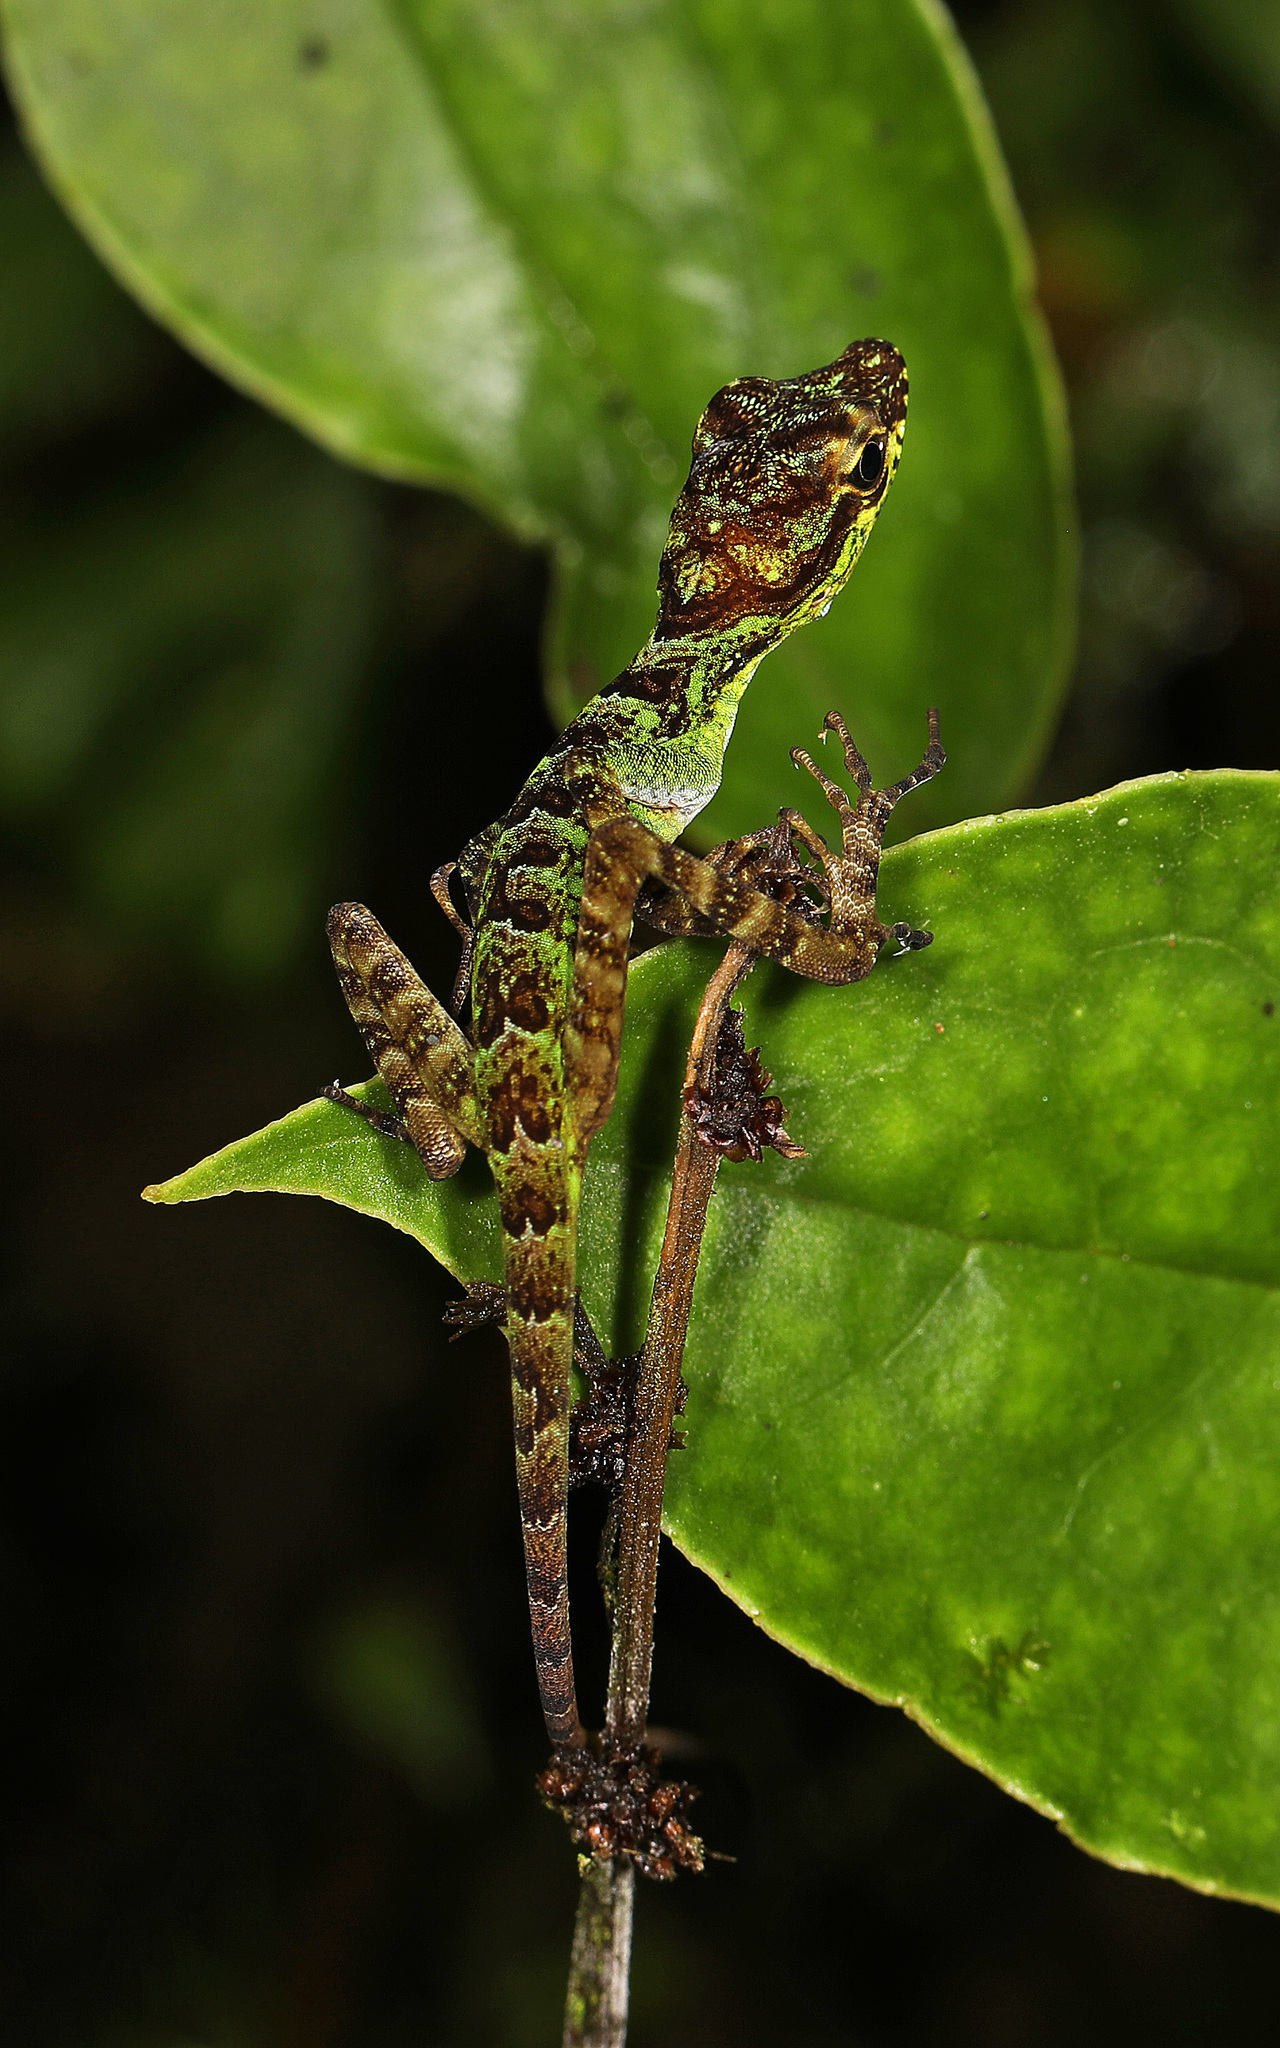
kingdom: Animalia
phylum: Chordata
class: Squamata
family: Dactyloidae
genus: Anolis
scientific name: Anolis aequatorialis
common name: Equatorial anole
